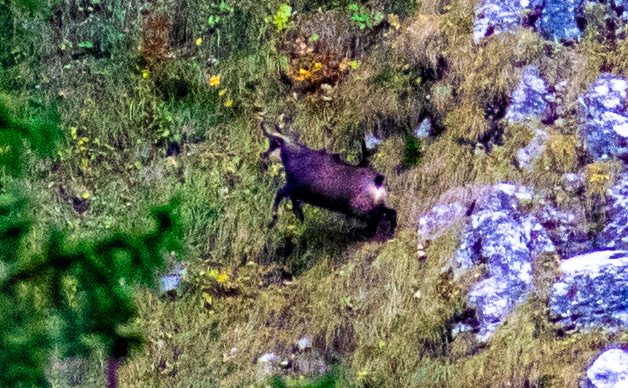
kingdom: Animalia
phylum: Chordata
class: Mammalia
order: Artiodactyla
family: Bovidae
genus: Rupicapra
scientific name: Rupicapra rupicapra
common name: Chamois
